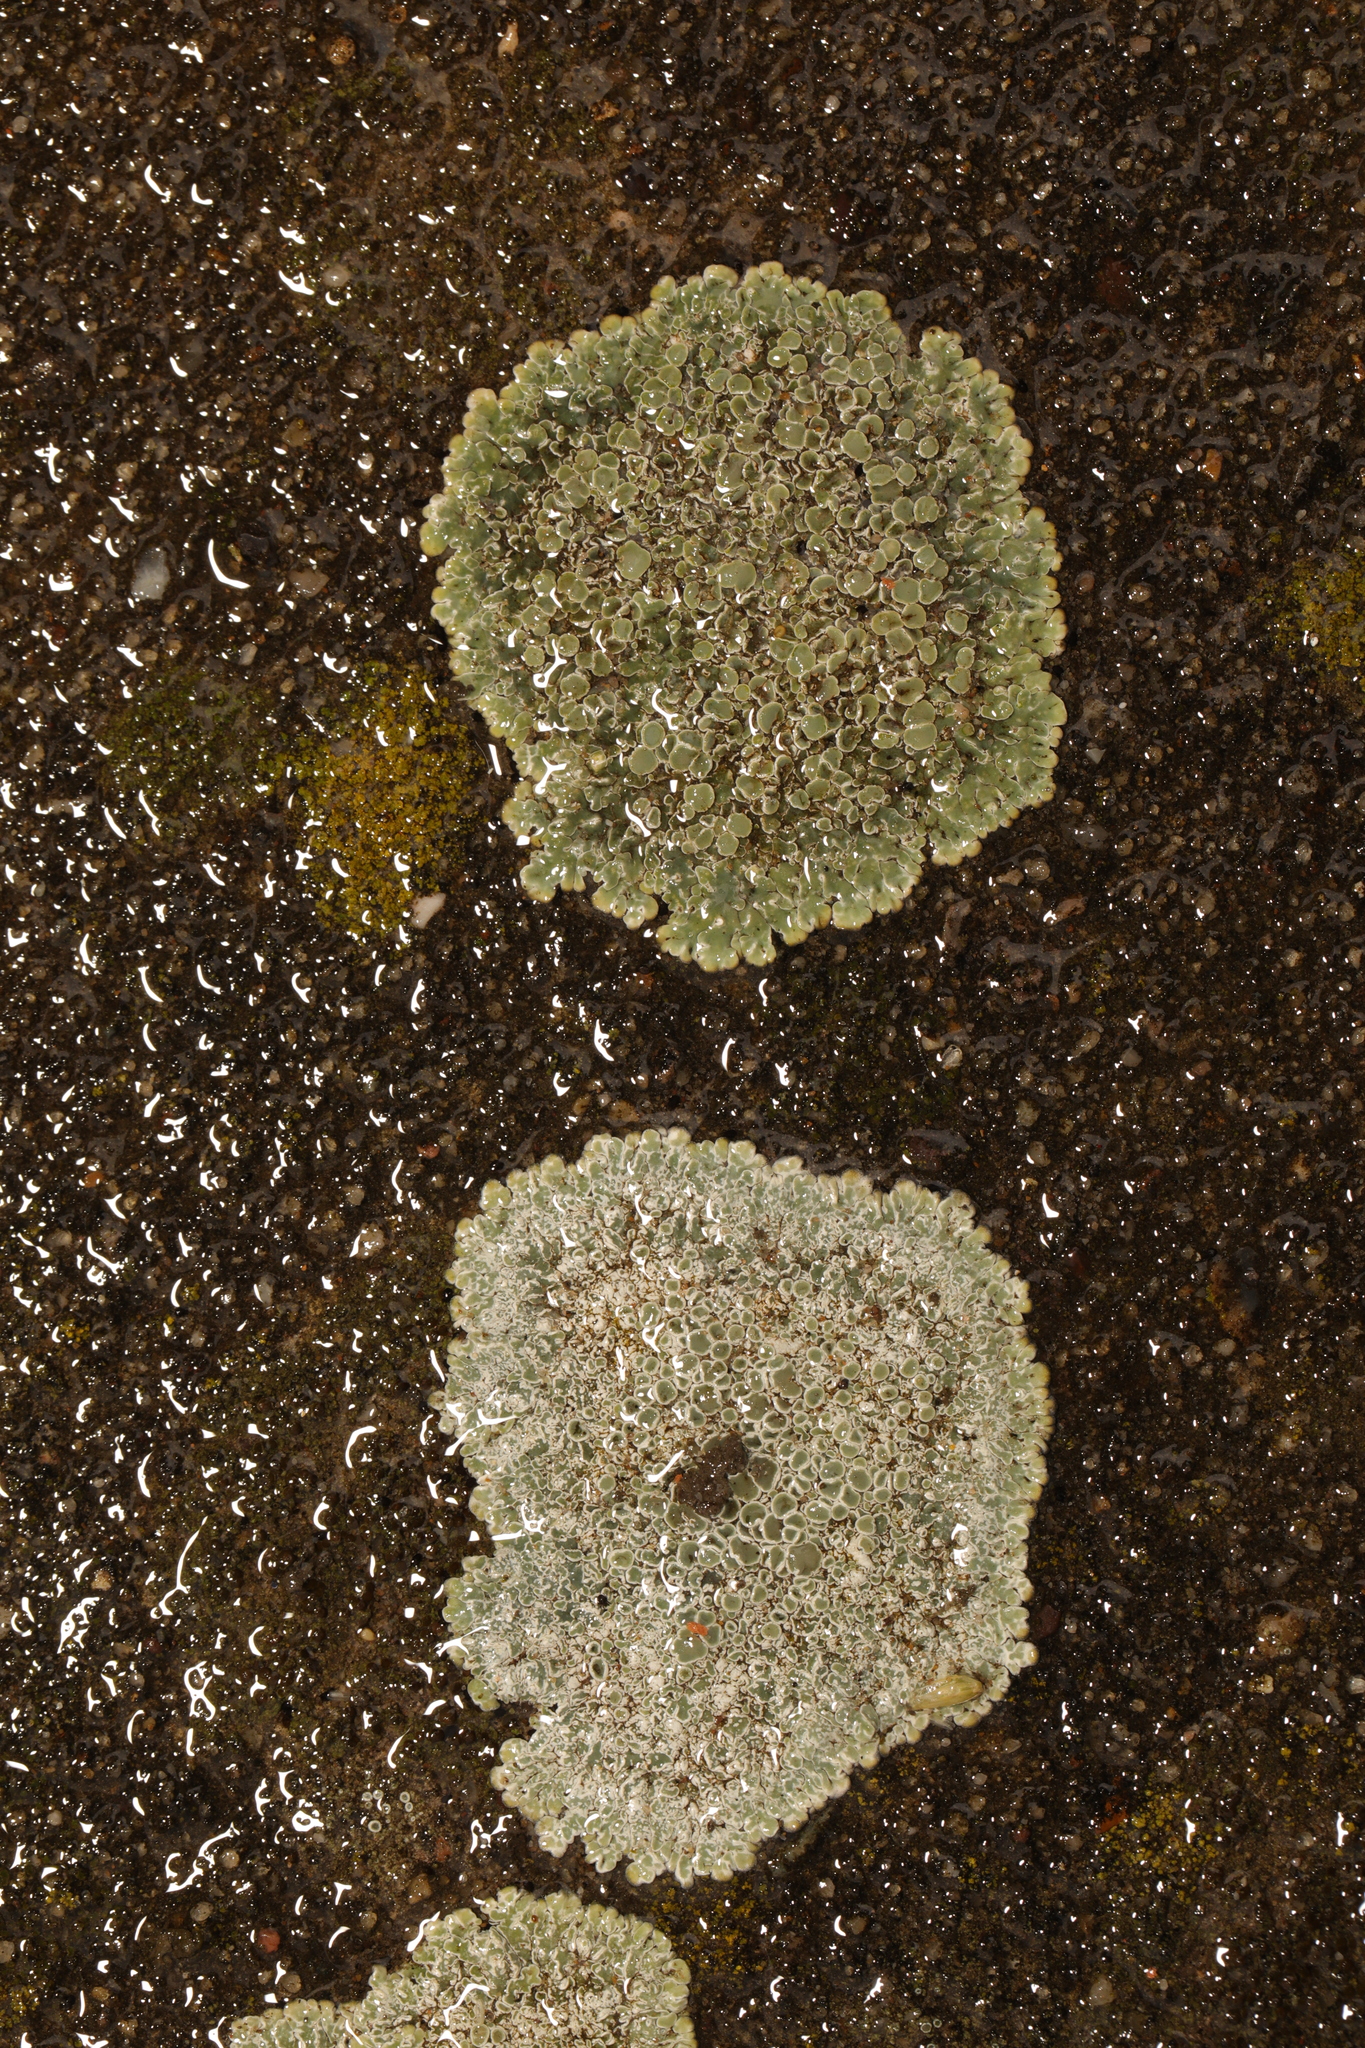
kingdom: Fungi
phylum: Ascomycota
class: Lecanoromycetes
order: Lecanorales
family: Lecanoraceae
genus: Protoparmeliopsis
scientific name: Protoparmeliopsis muralis
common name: Stonewall rim lichen
